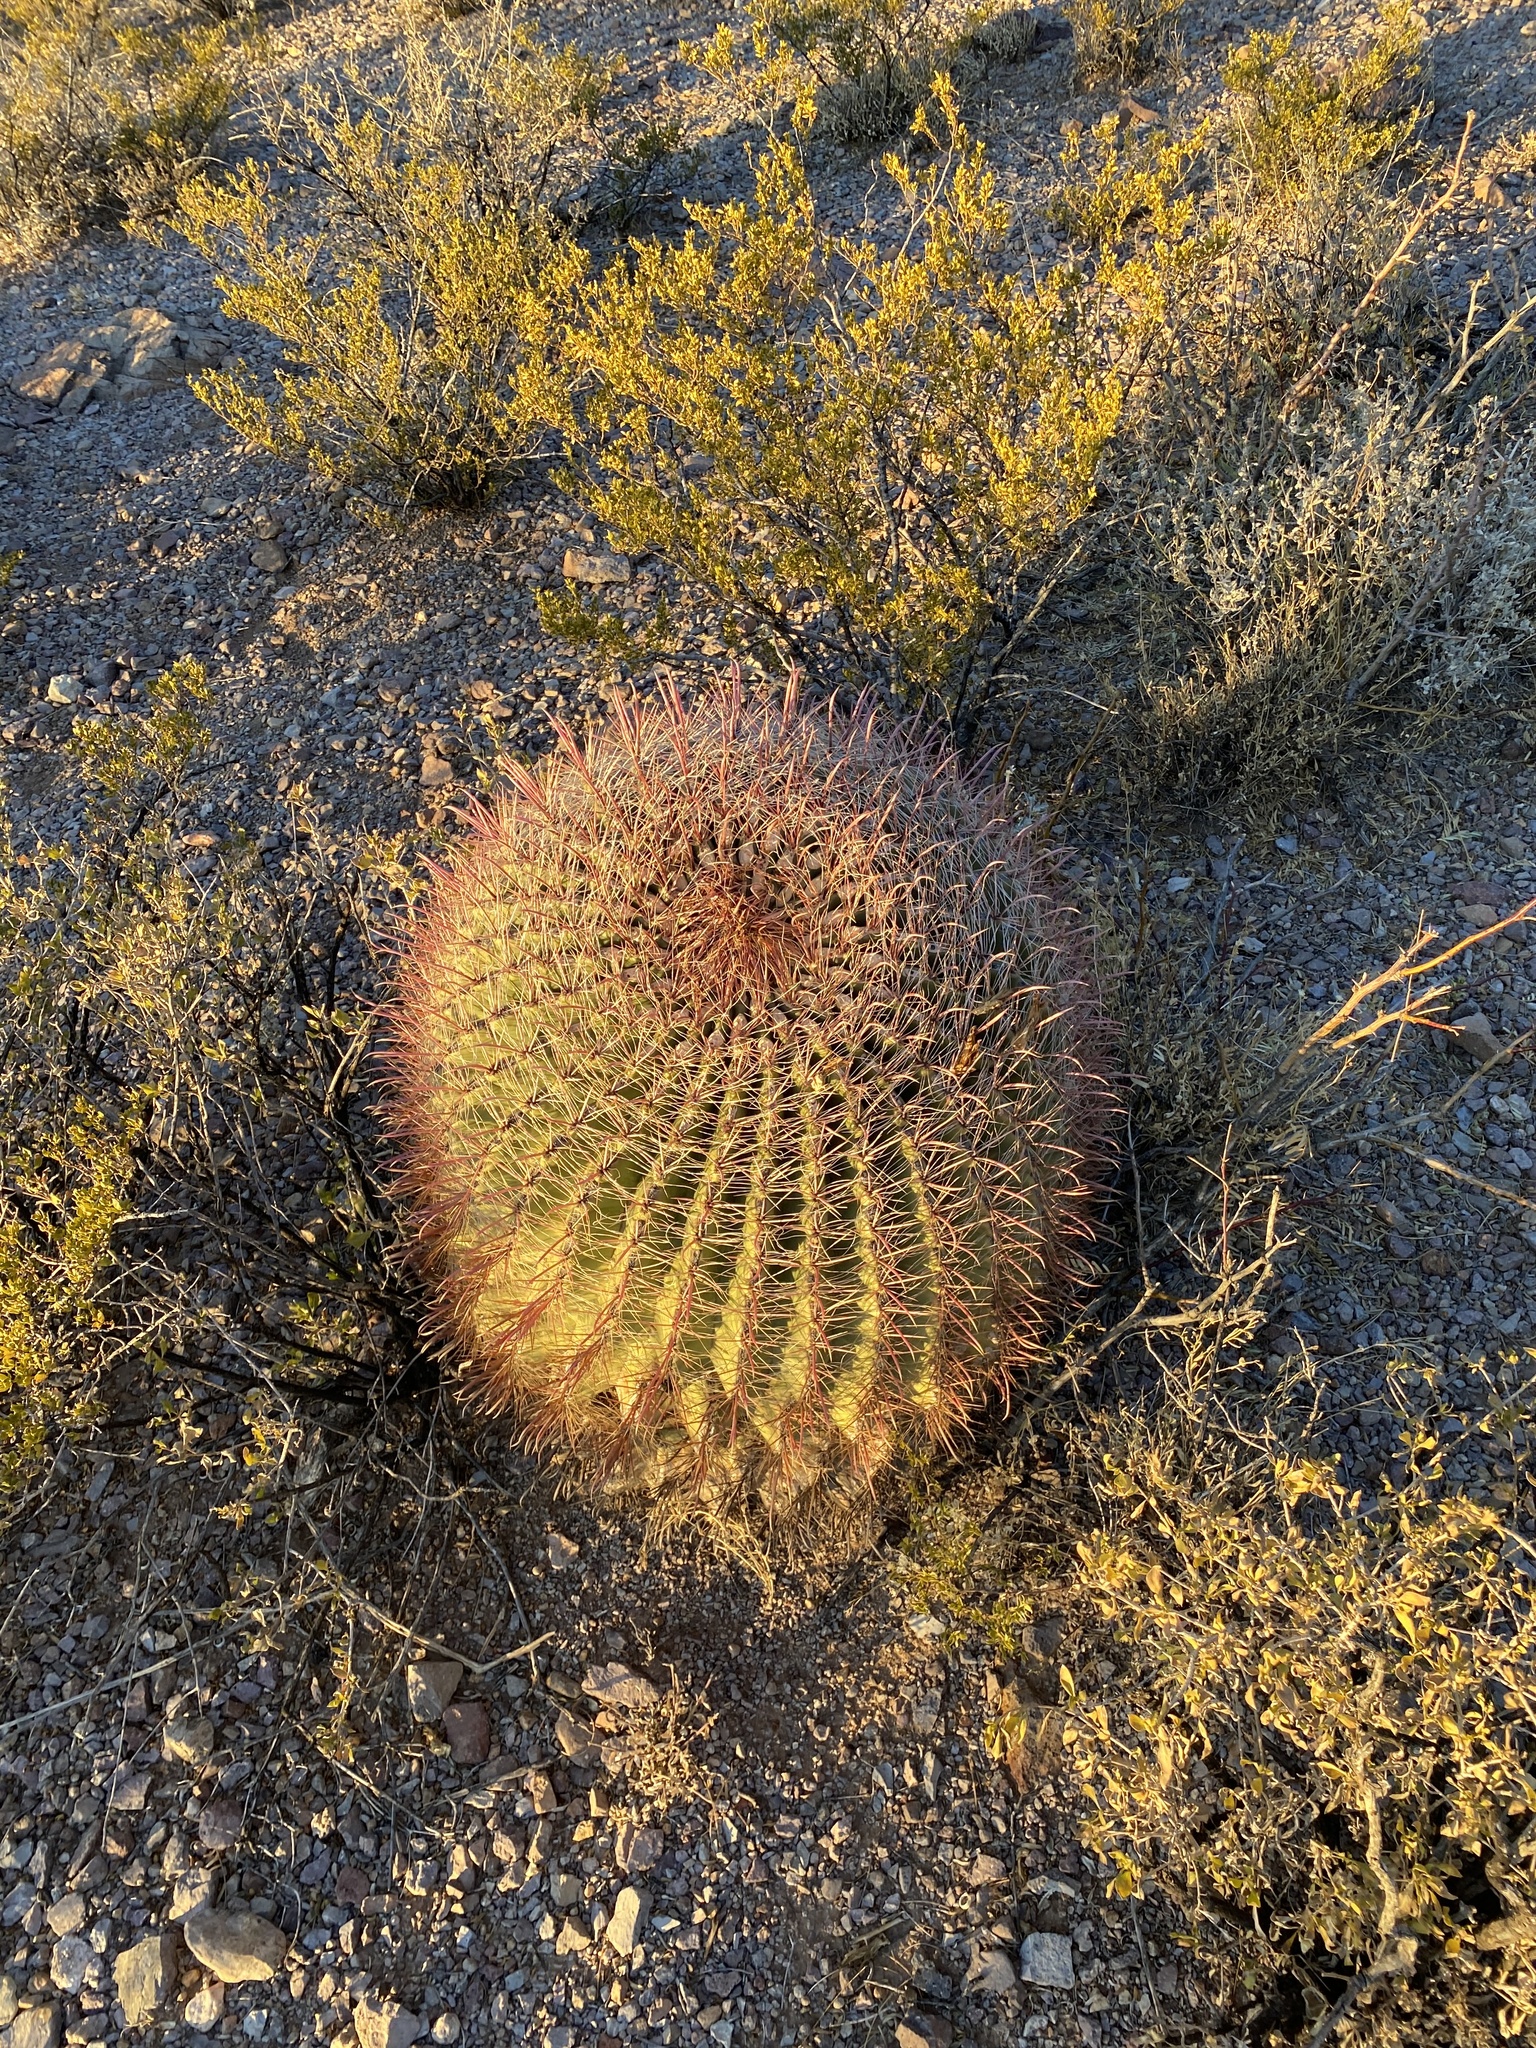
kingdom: Plantae
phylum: Tracheophyta
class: Magnoliopsida
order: Caryophyllales
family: Cactaceae
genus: Ferocactus
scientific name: Ferocactus wislizeni
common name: Candy barrel cactus
